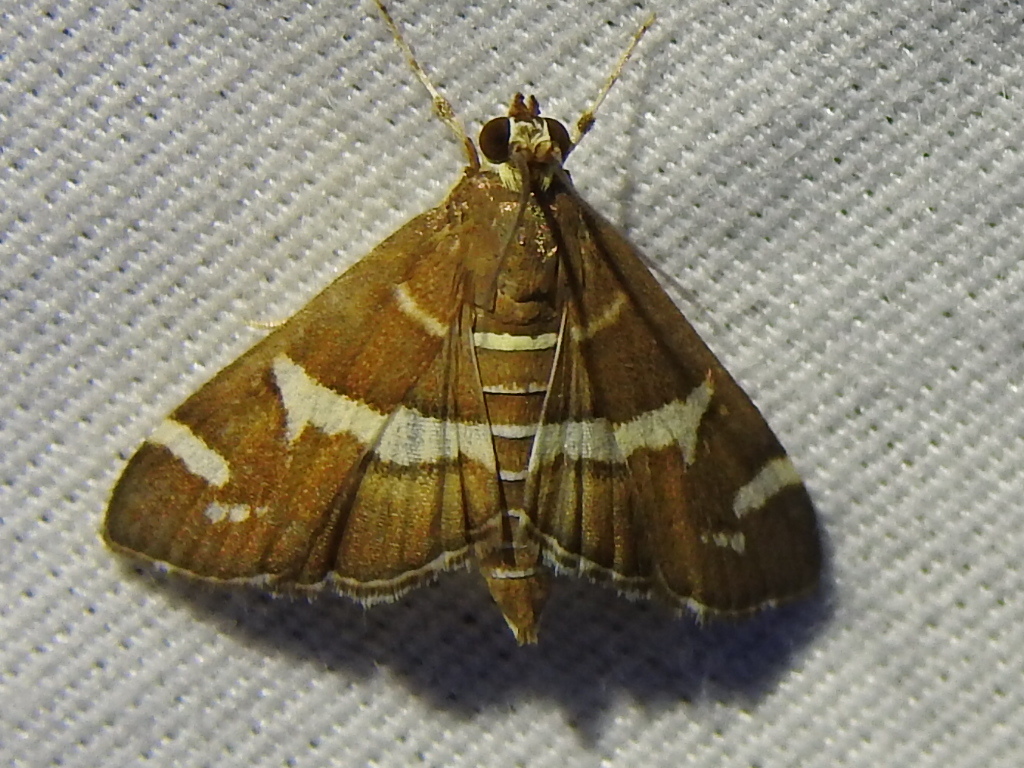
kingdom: Animalia
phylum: Arthropoda
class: Insecta
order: Lepidoptera
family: Crambidae
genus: Spoladea
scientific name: Spoladea recurvalis
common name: Beet webworm moth
